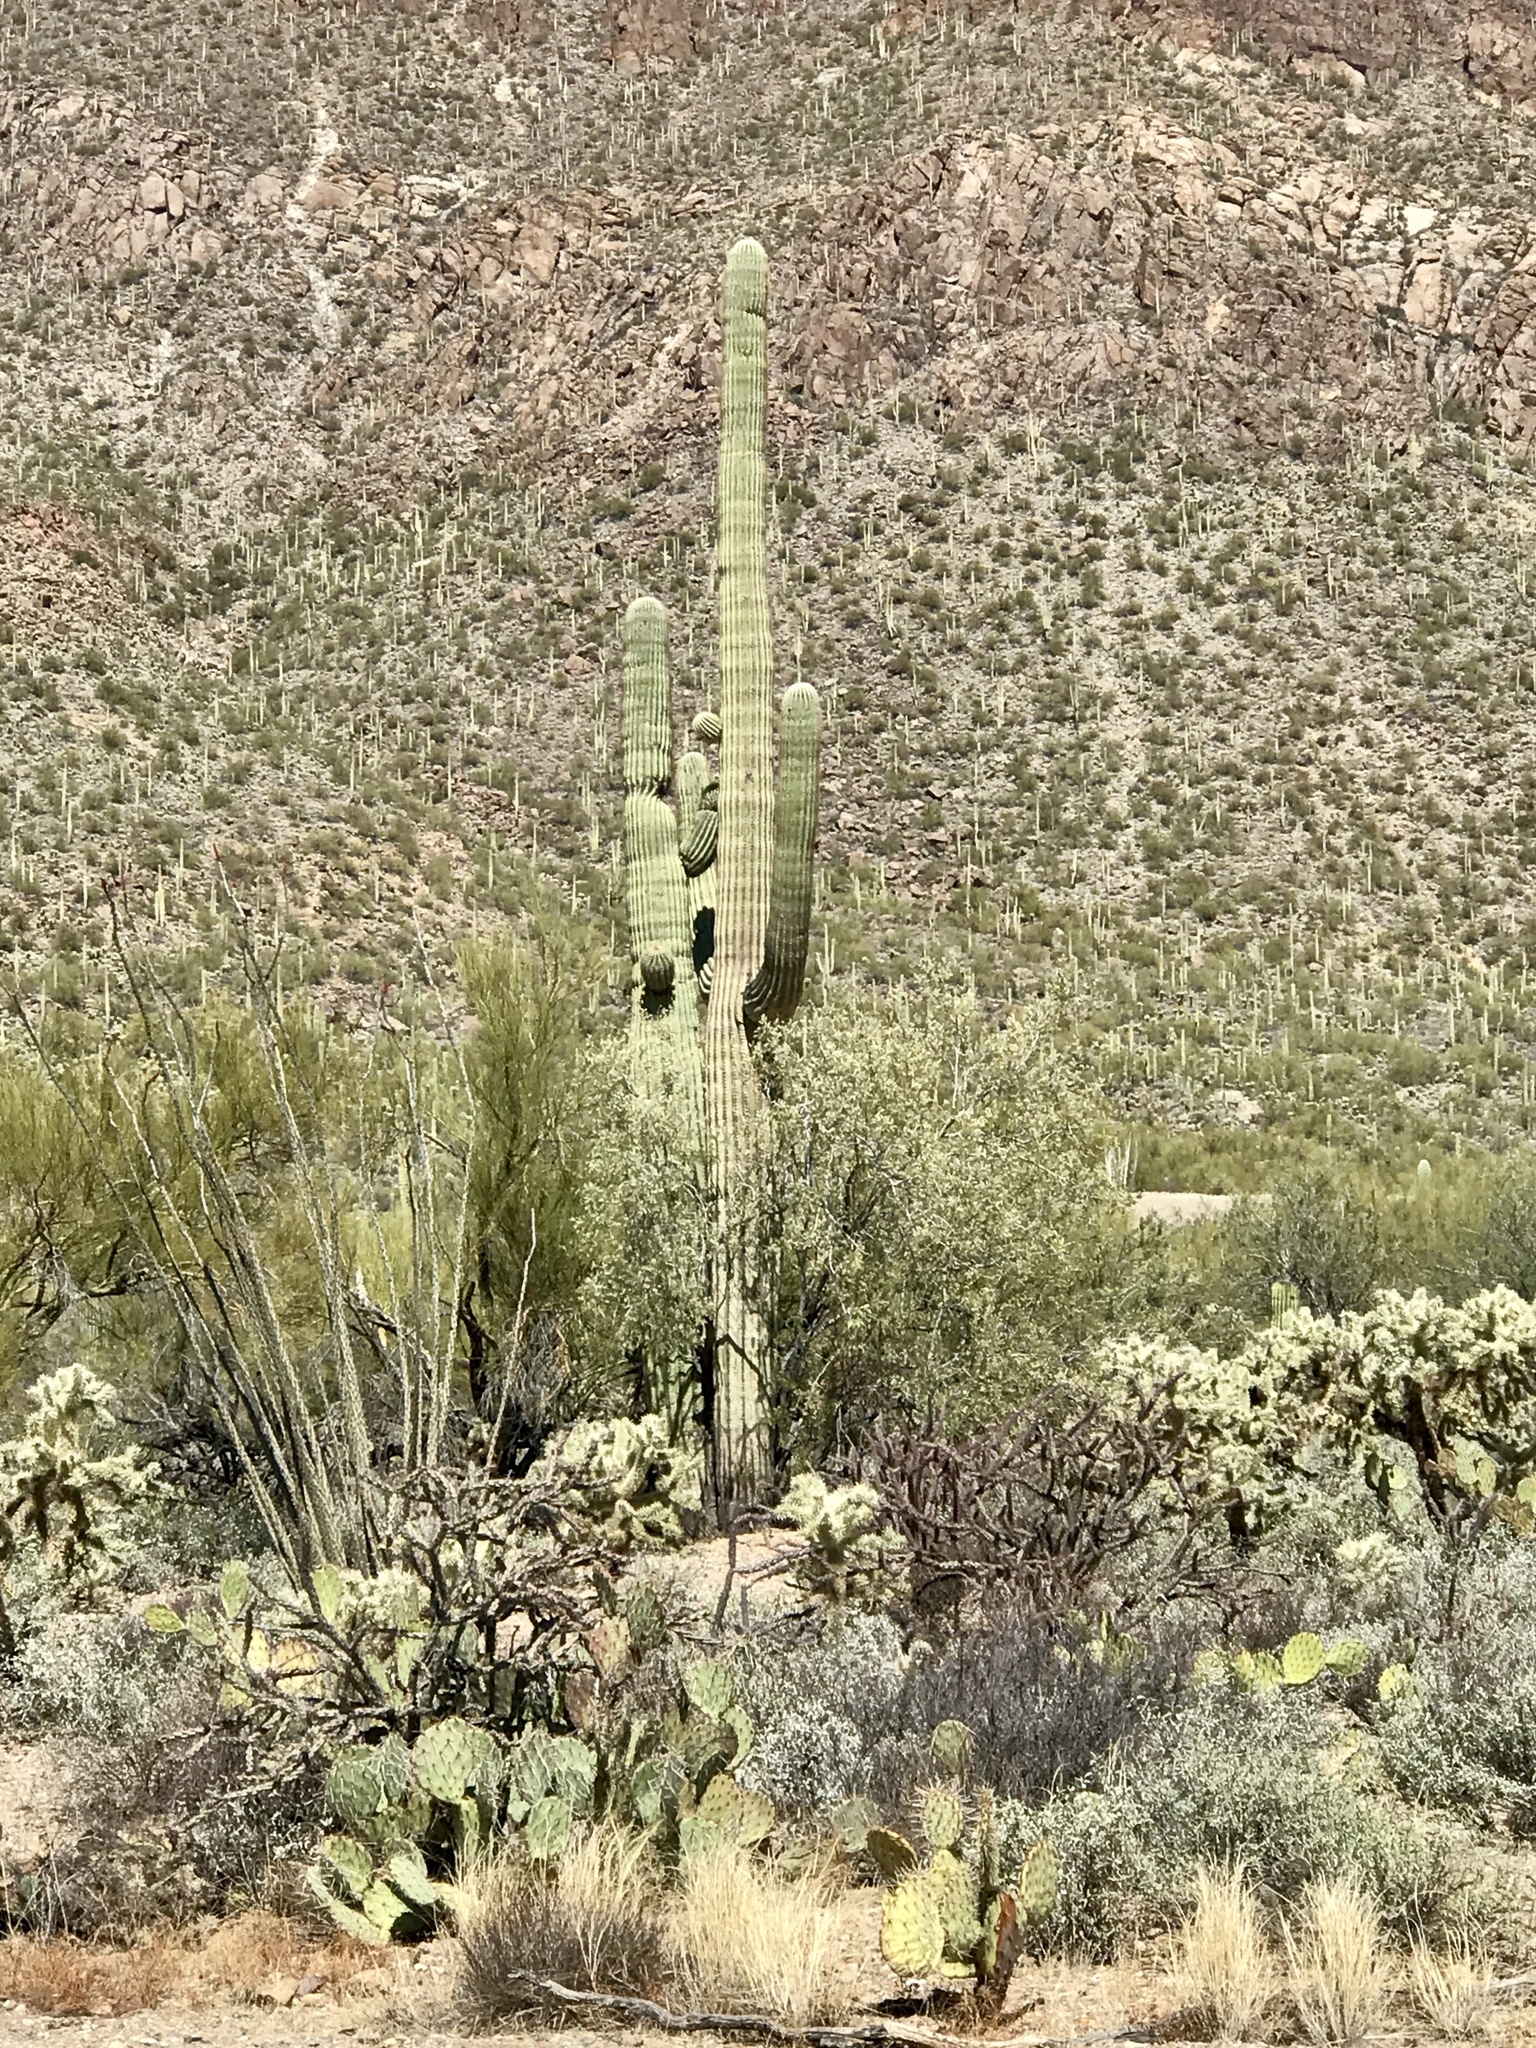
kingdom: Plantae
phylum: Tracheophyta
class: Magnoliopsida
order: Caryophyllales
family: Cactaceae
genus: Carnegiea
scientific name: Carnegiea gigantea
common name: Saguaro
